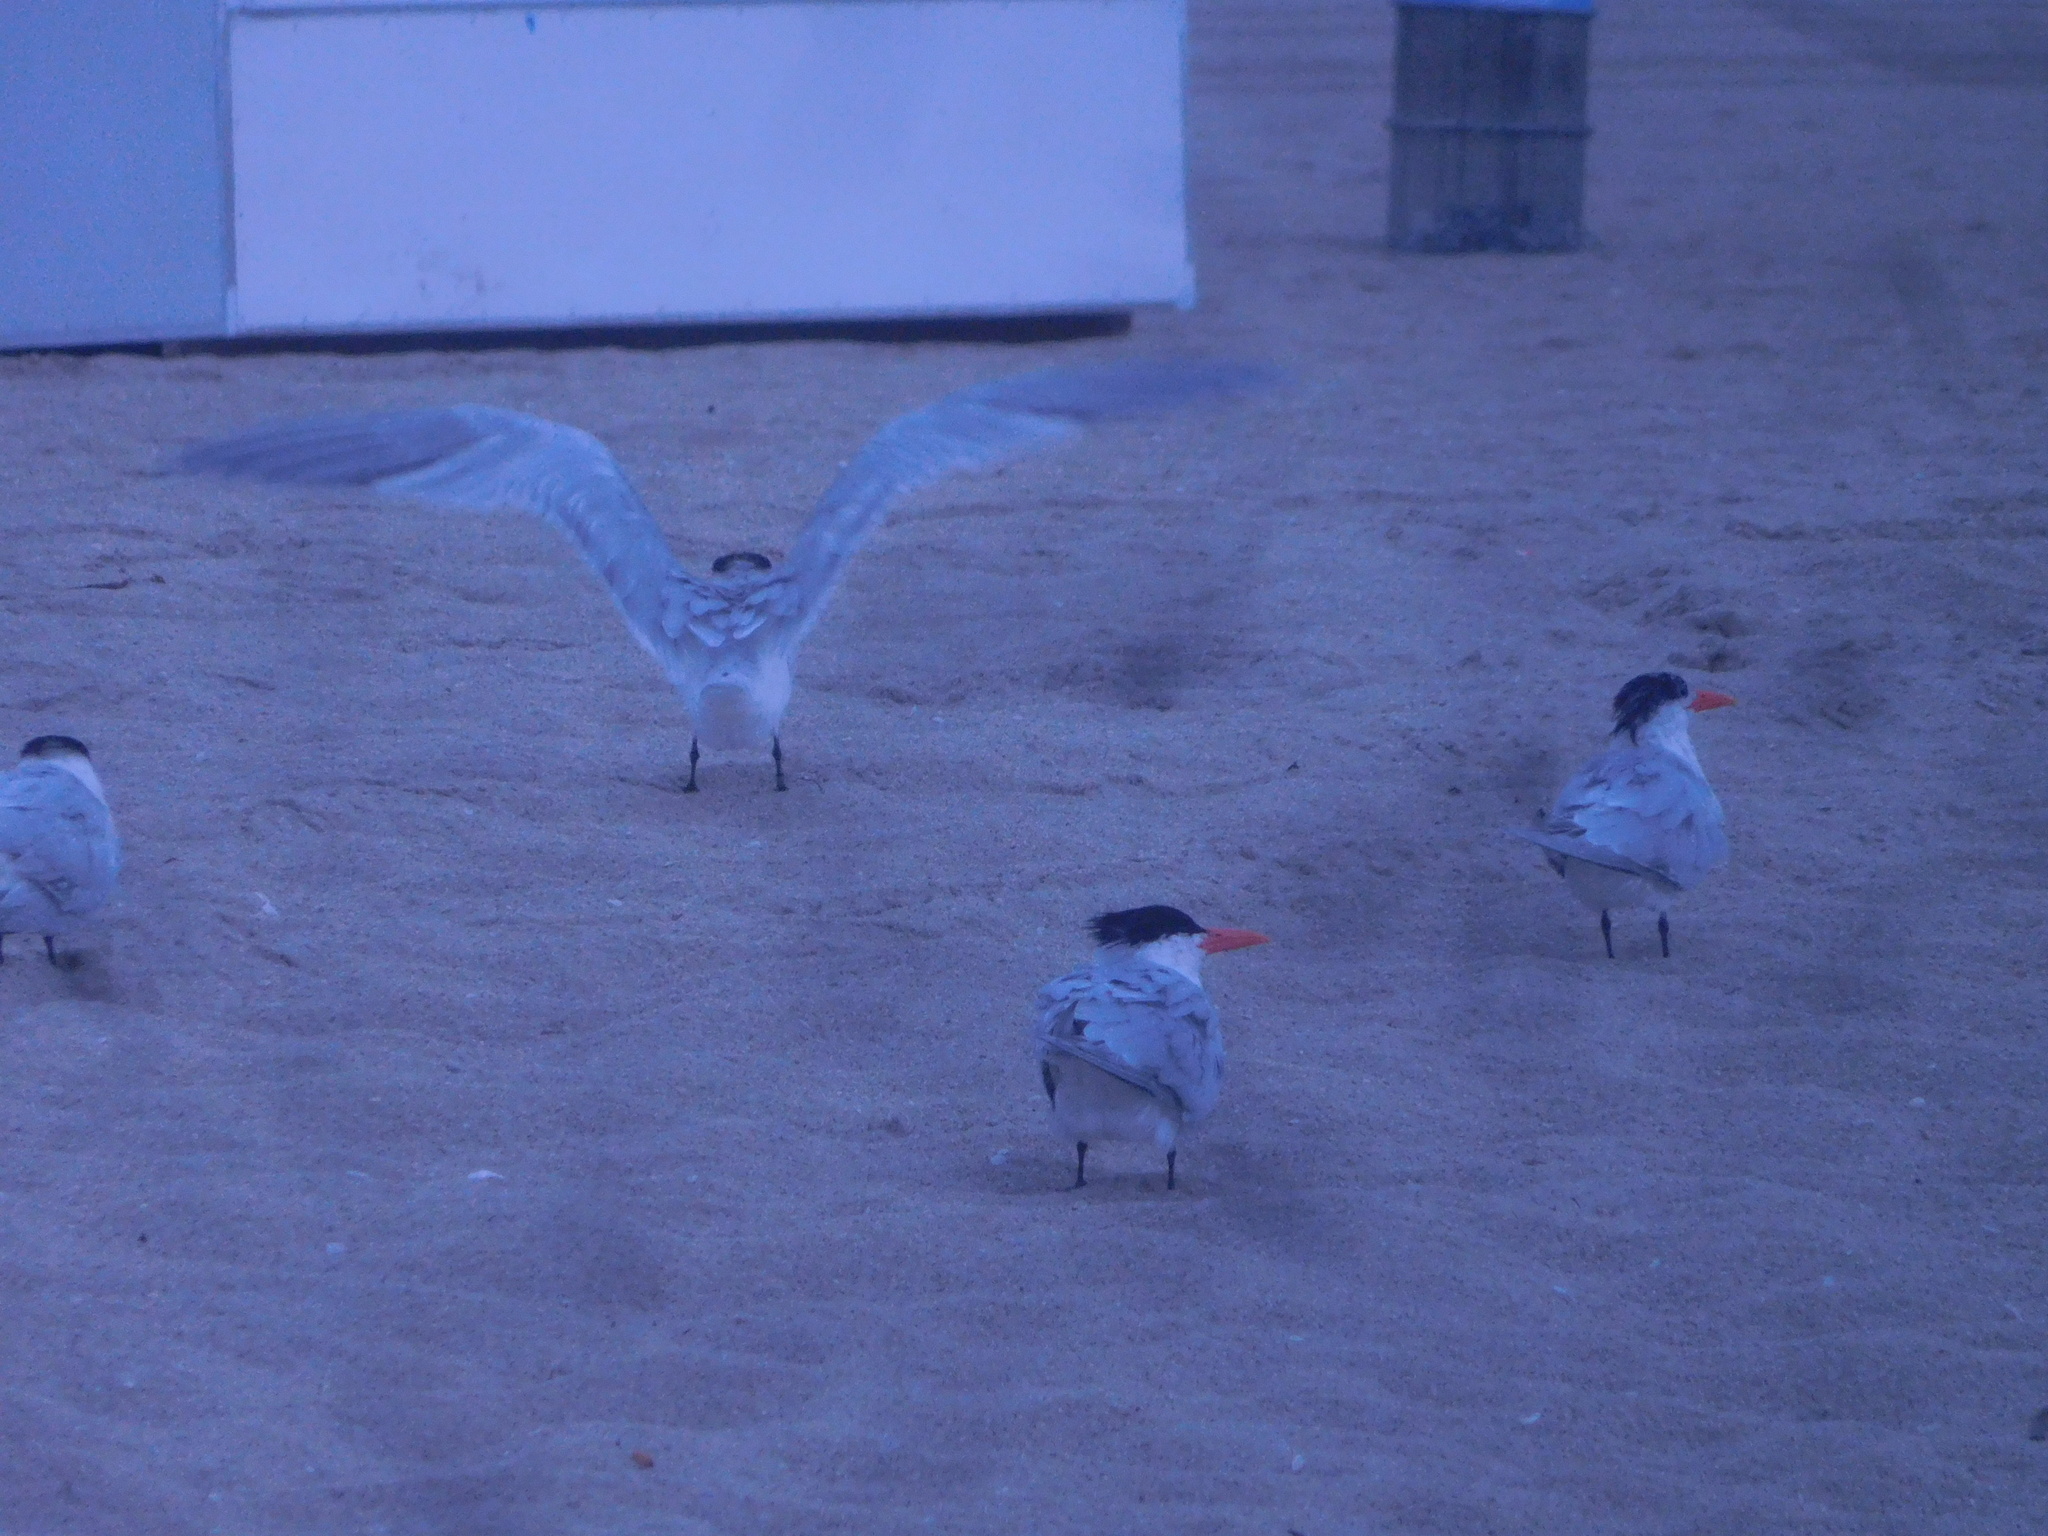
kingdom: Animalia
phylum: Chordata
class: Aves
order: Charadriiformes
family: Laridae
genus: Thalasseus
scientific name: Thalasseus maximus
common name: Royal tern
